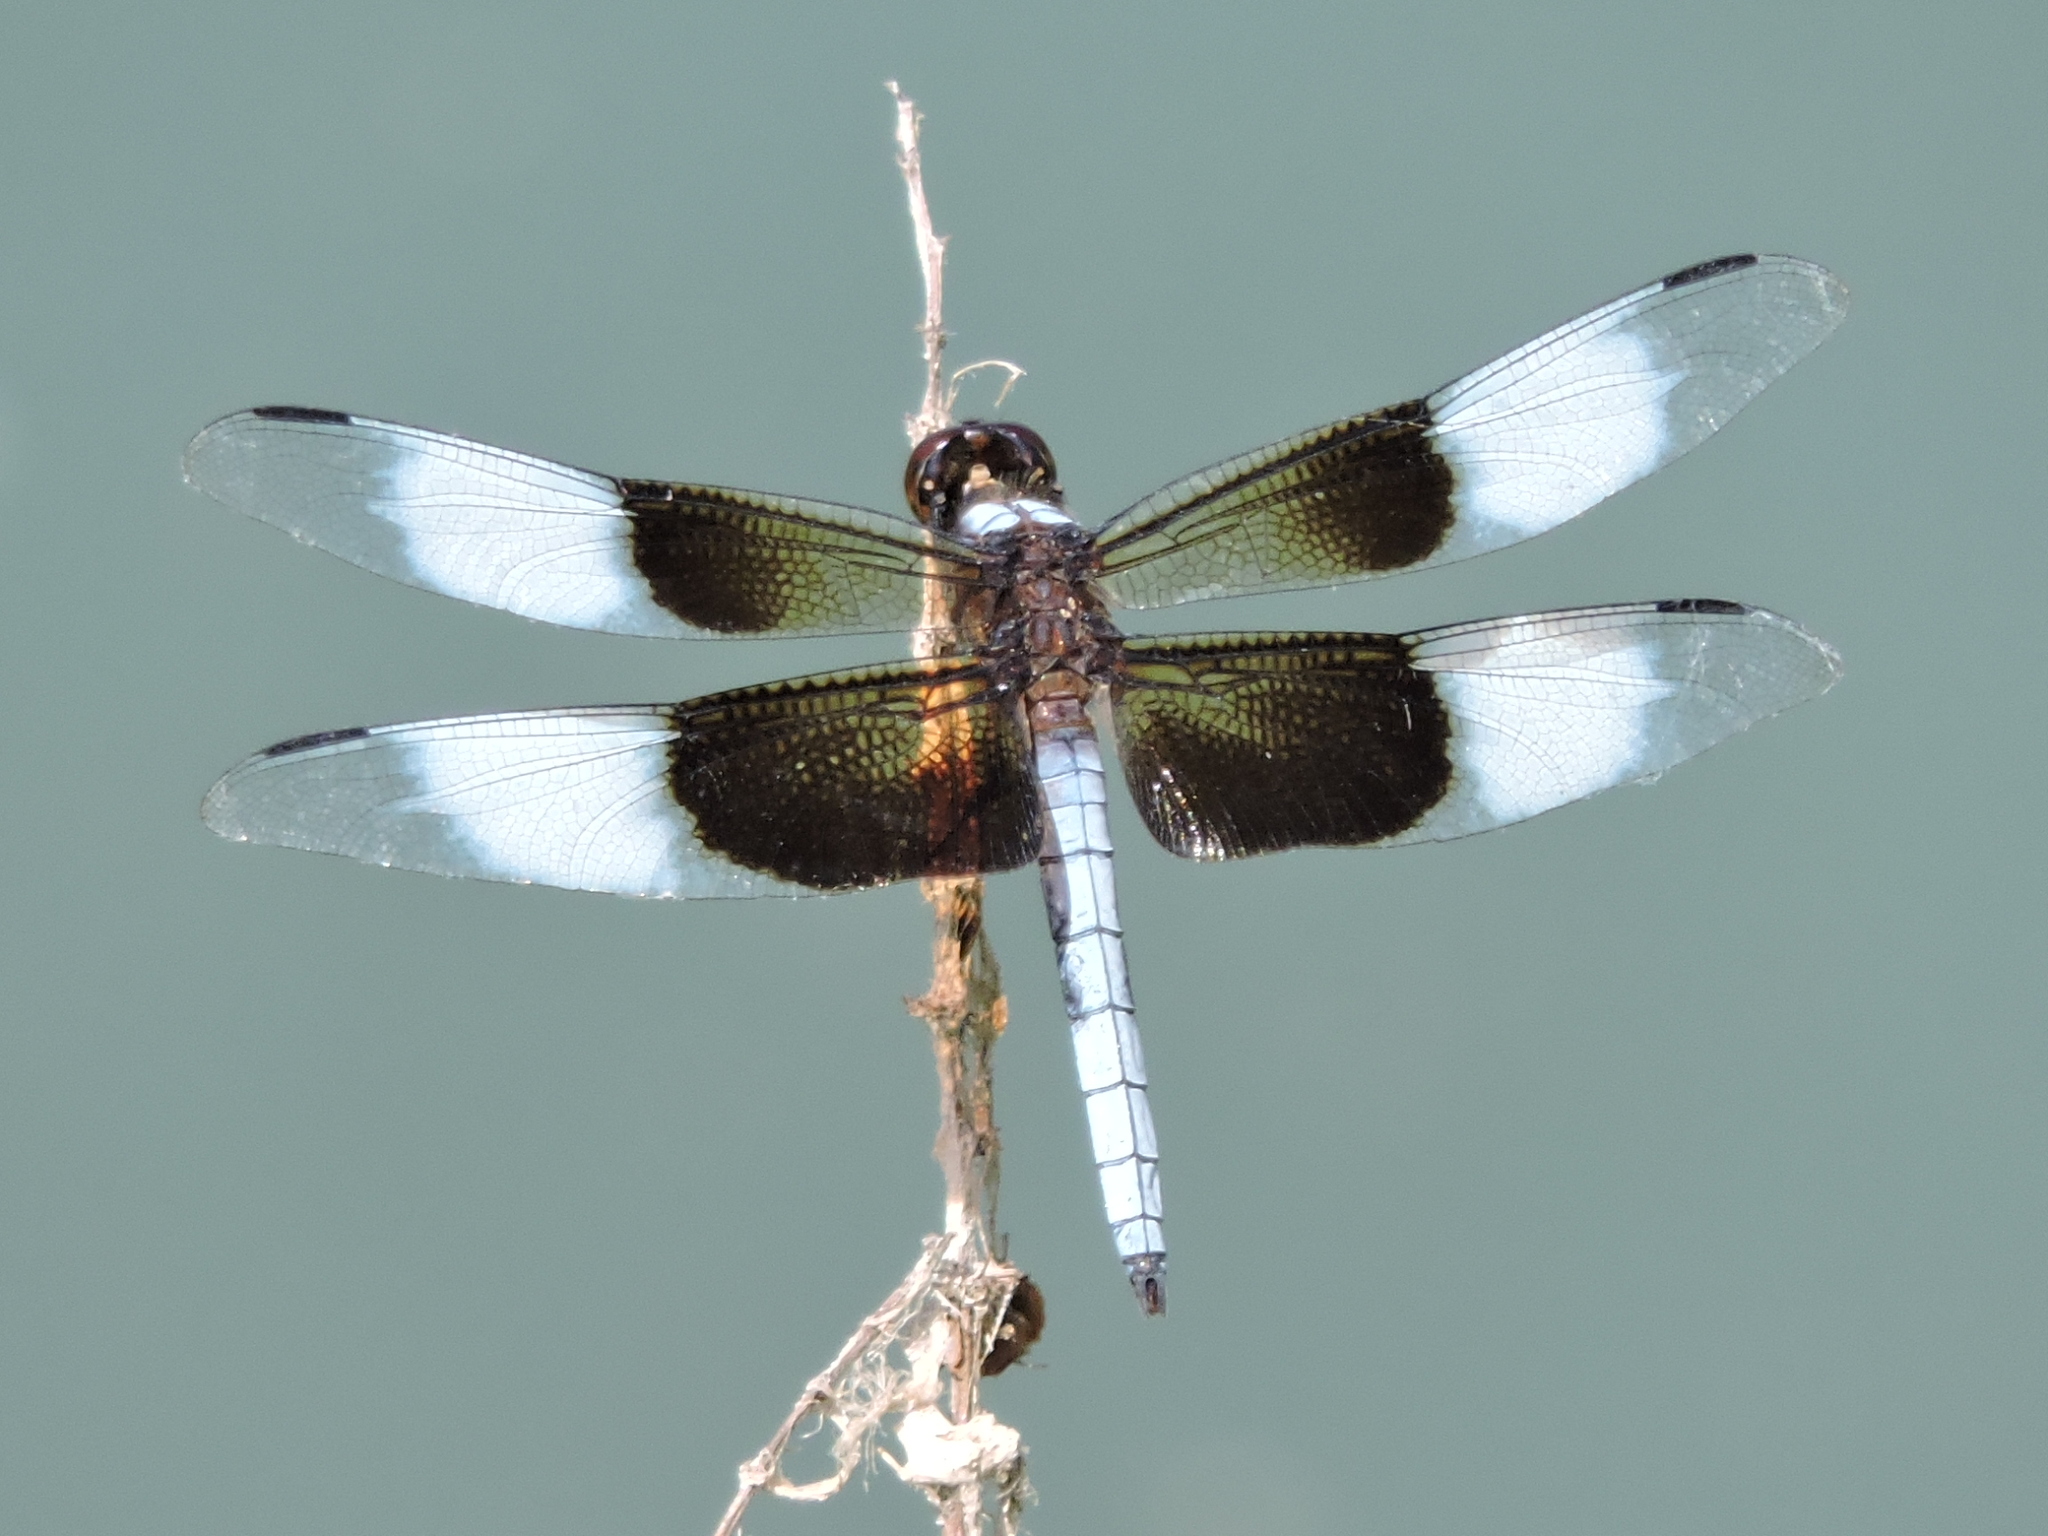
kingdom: Animalia
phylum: Arthropoda
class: Insecta
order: Odonata
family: Libellulidae
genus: Libellula
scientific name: Libellula luctuosa
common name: Widow skimmer
